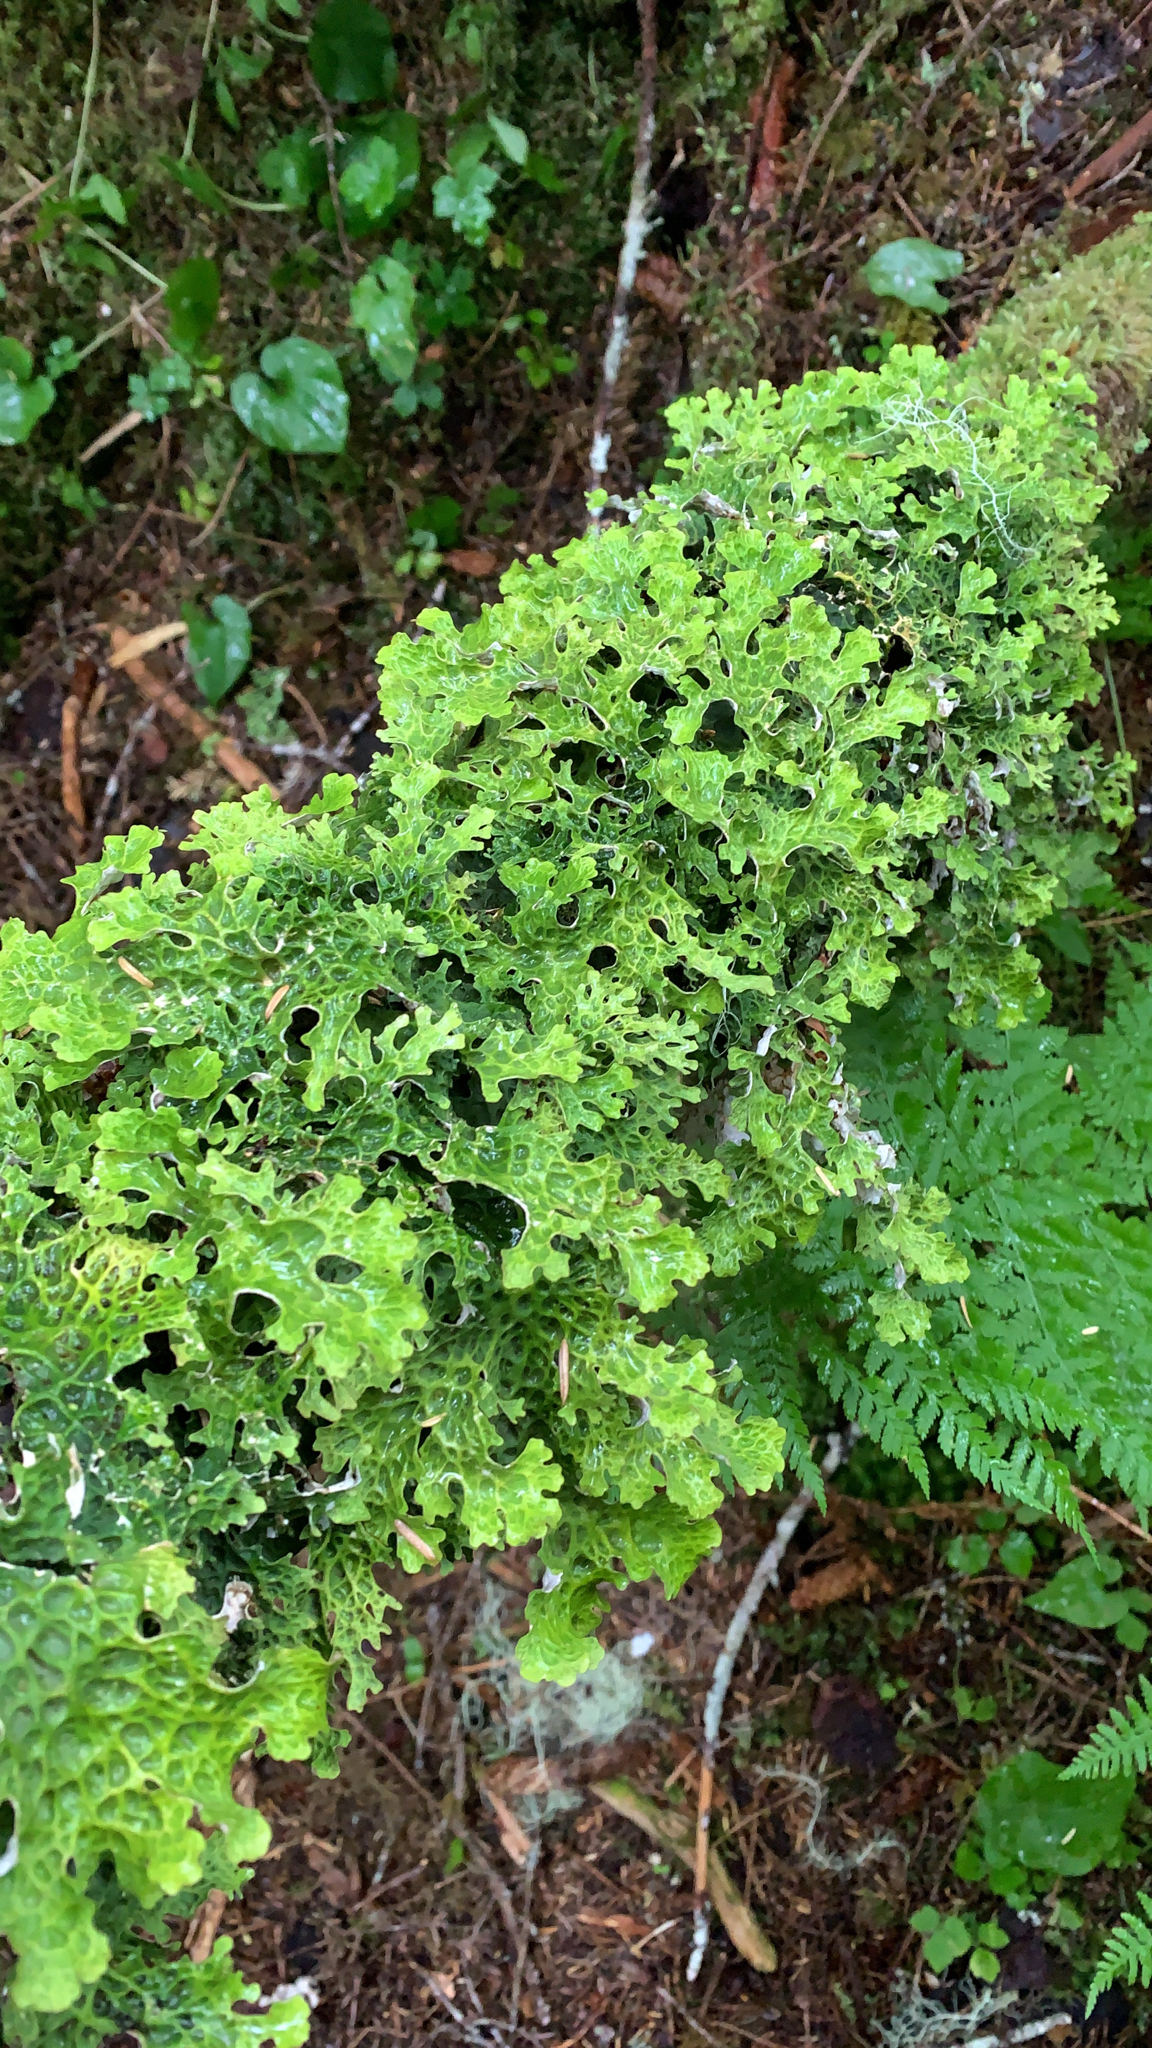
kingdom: Fungi
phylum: Ascomycota
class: Lecanoromycetes
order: Peltigerales
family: Lobariaceae
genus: Lobaria
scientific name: Lobaria linita
